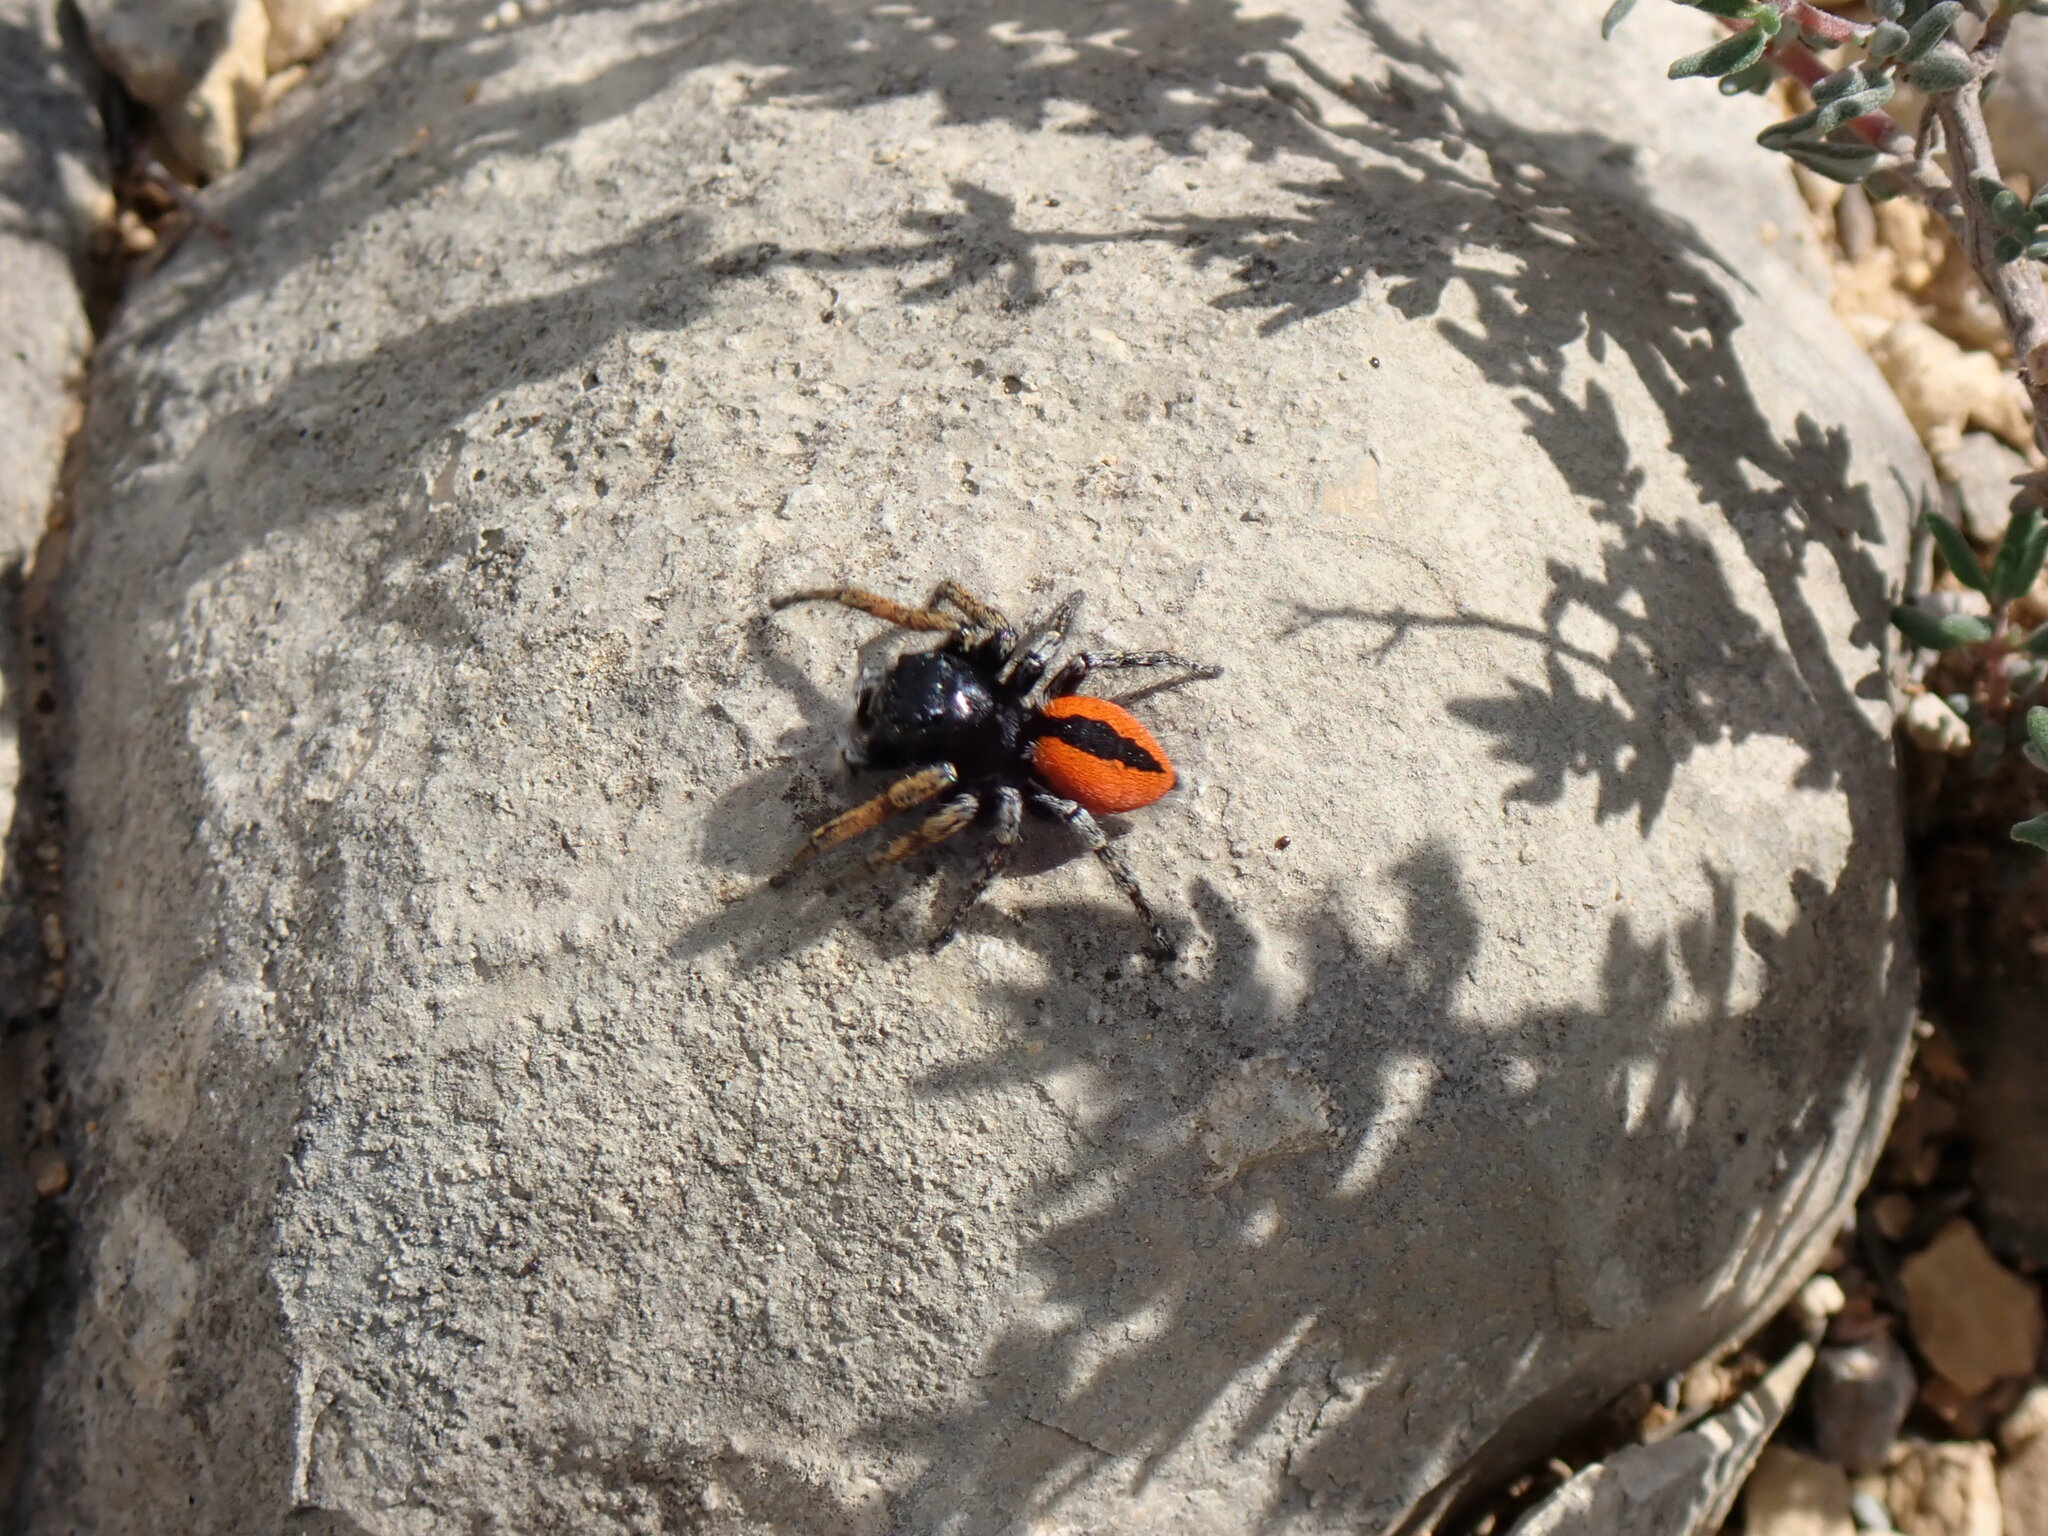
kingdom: Animalia
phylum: Arthropoda
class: Arachnida
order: Araneae
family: Salticidae
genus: Philaeus
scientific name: Philaeus chrysops
